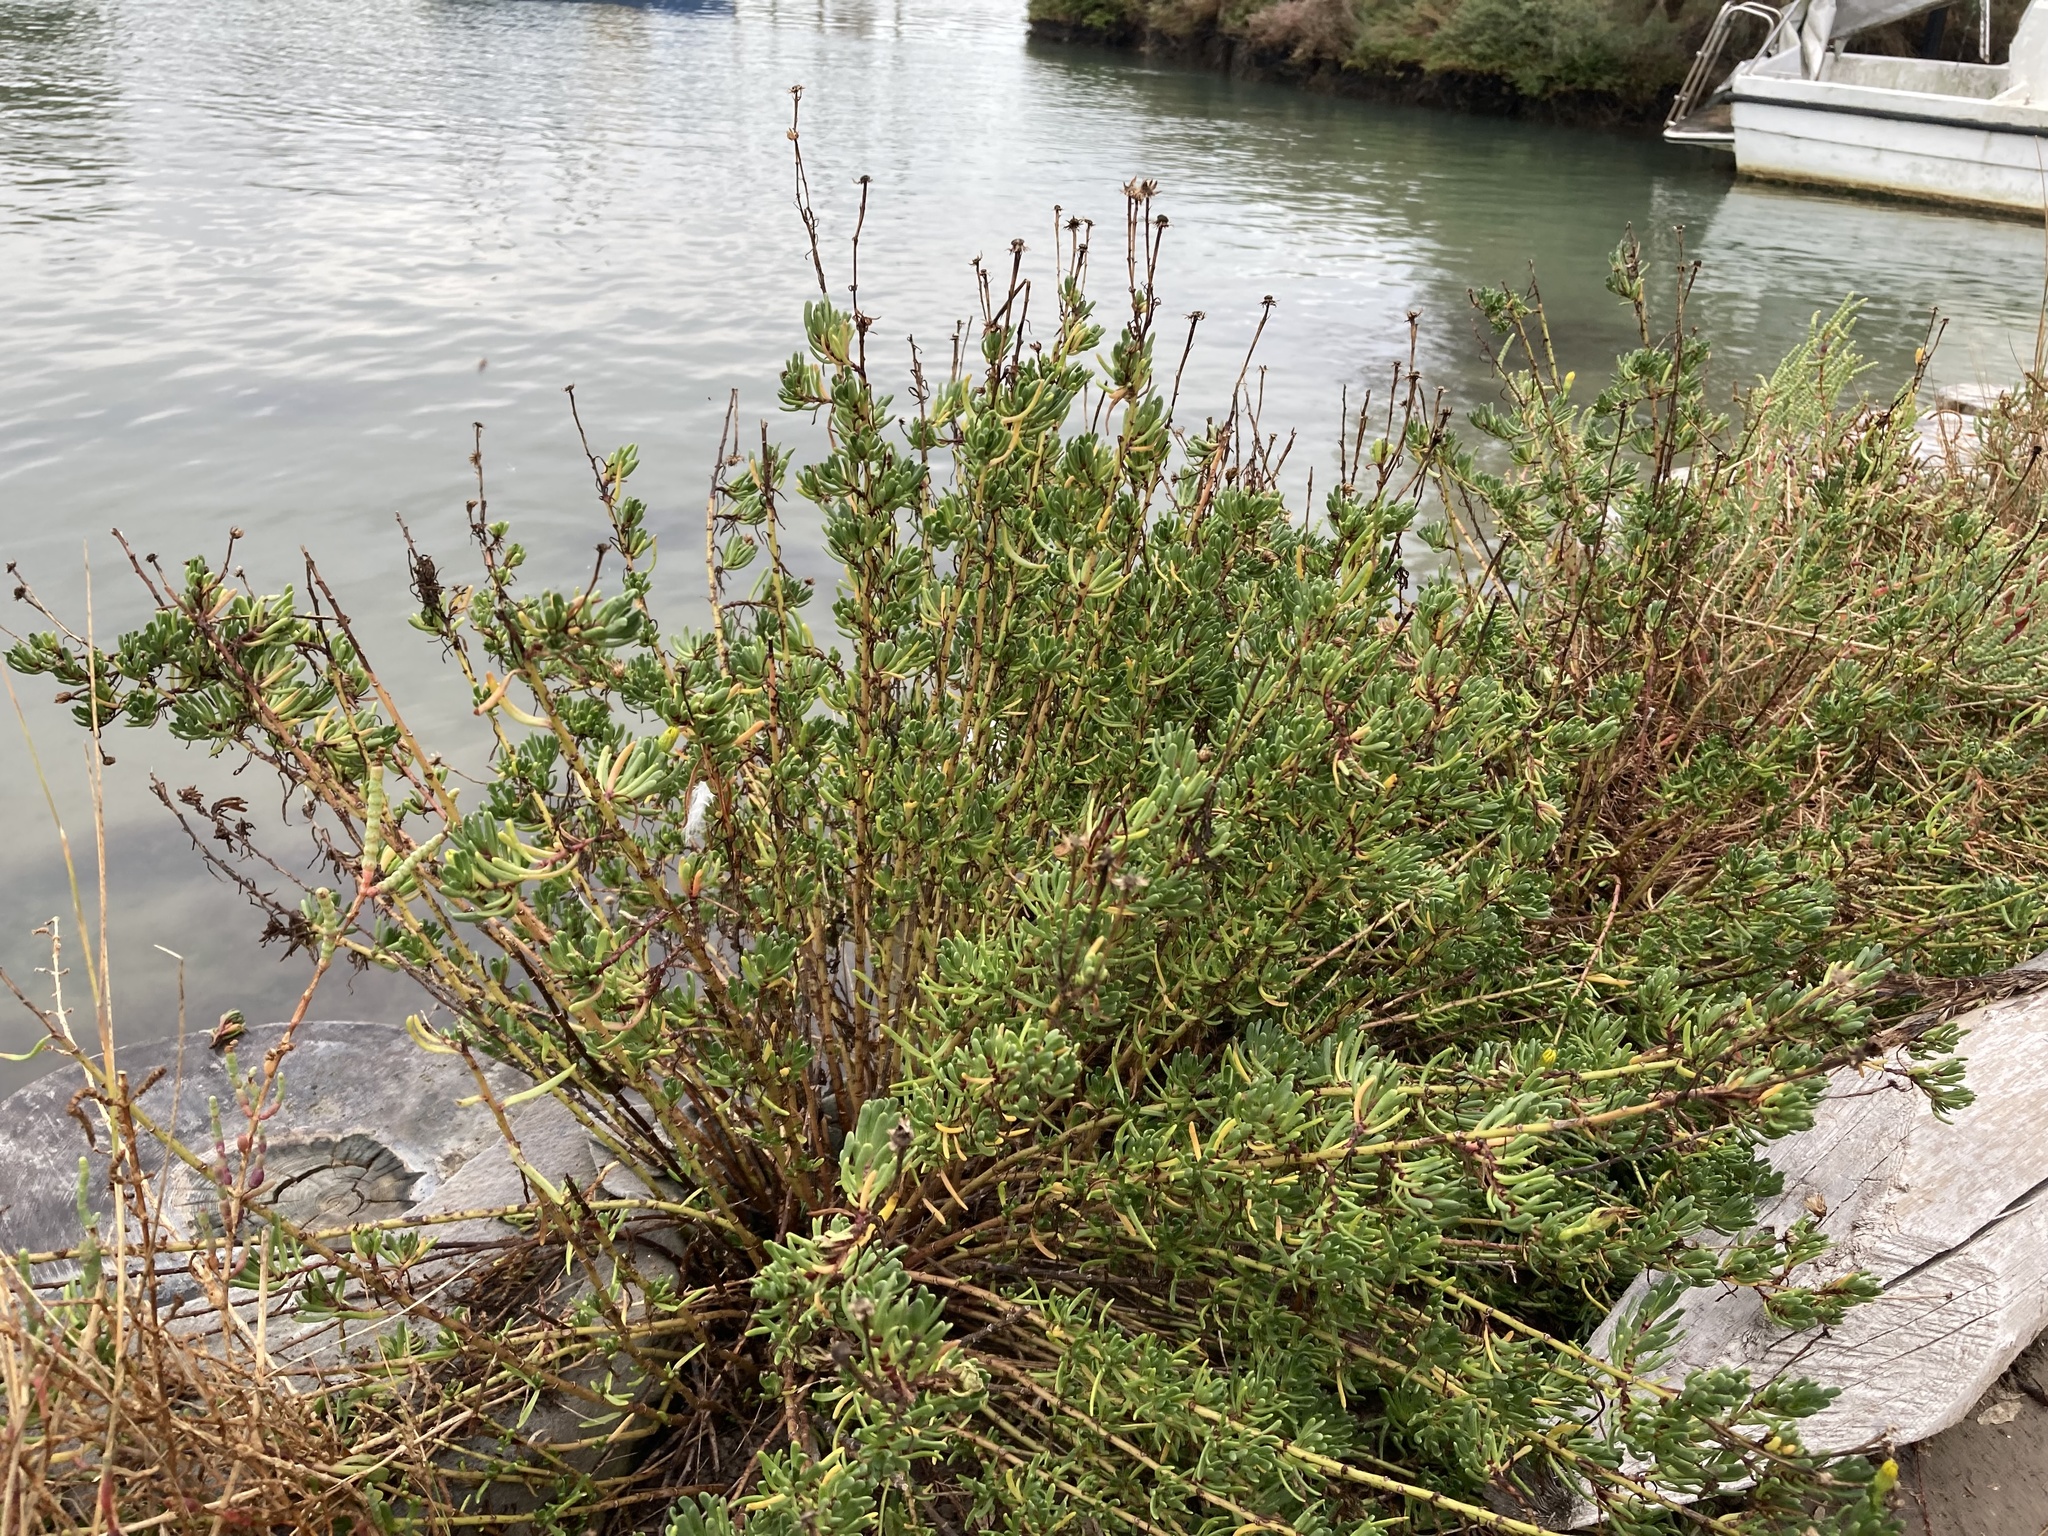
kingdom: Plantae
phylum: Tracheophyta
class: Magnoliopsida
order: Asterales
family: Asteraceae
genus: Limbarda
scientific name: Limbarda crithmoides
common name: Golden samphire
